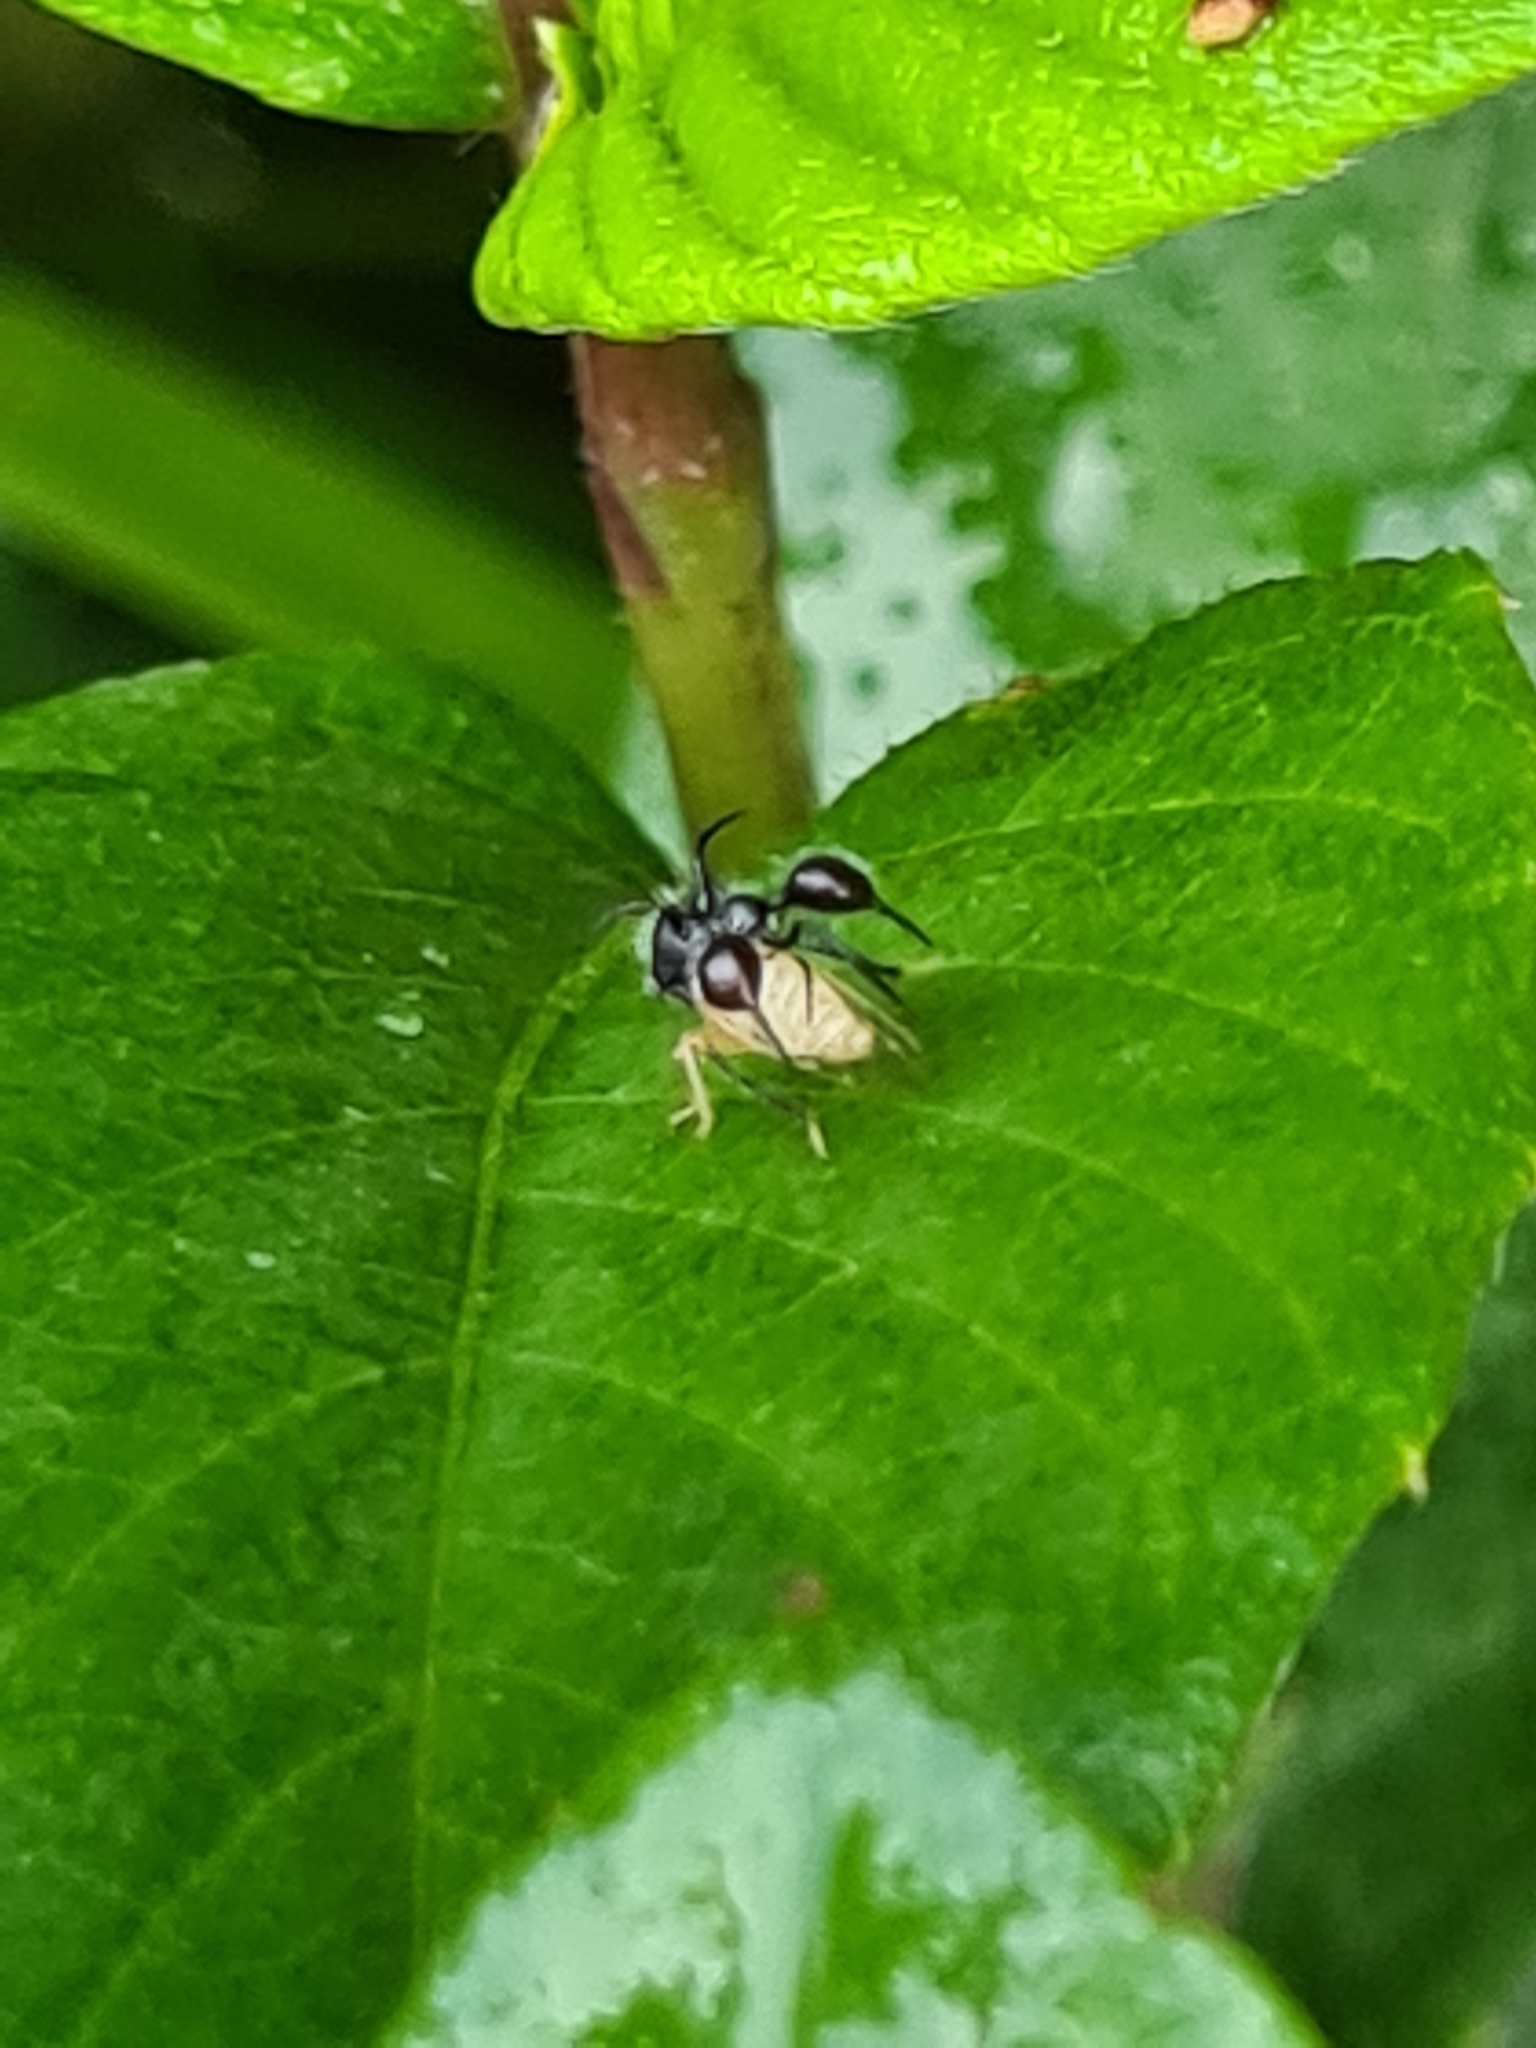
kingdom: Animalia
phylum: Arthropoda
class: Insecta
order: Hemiptera
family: Membracidae
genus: Cyphonia
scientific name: Cyphonia clavata
